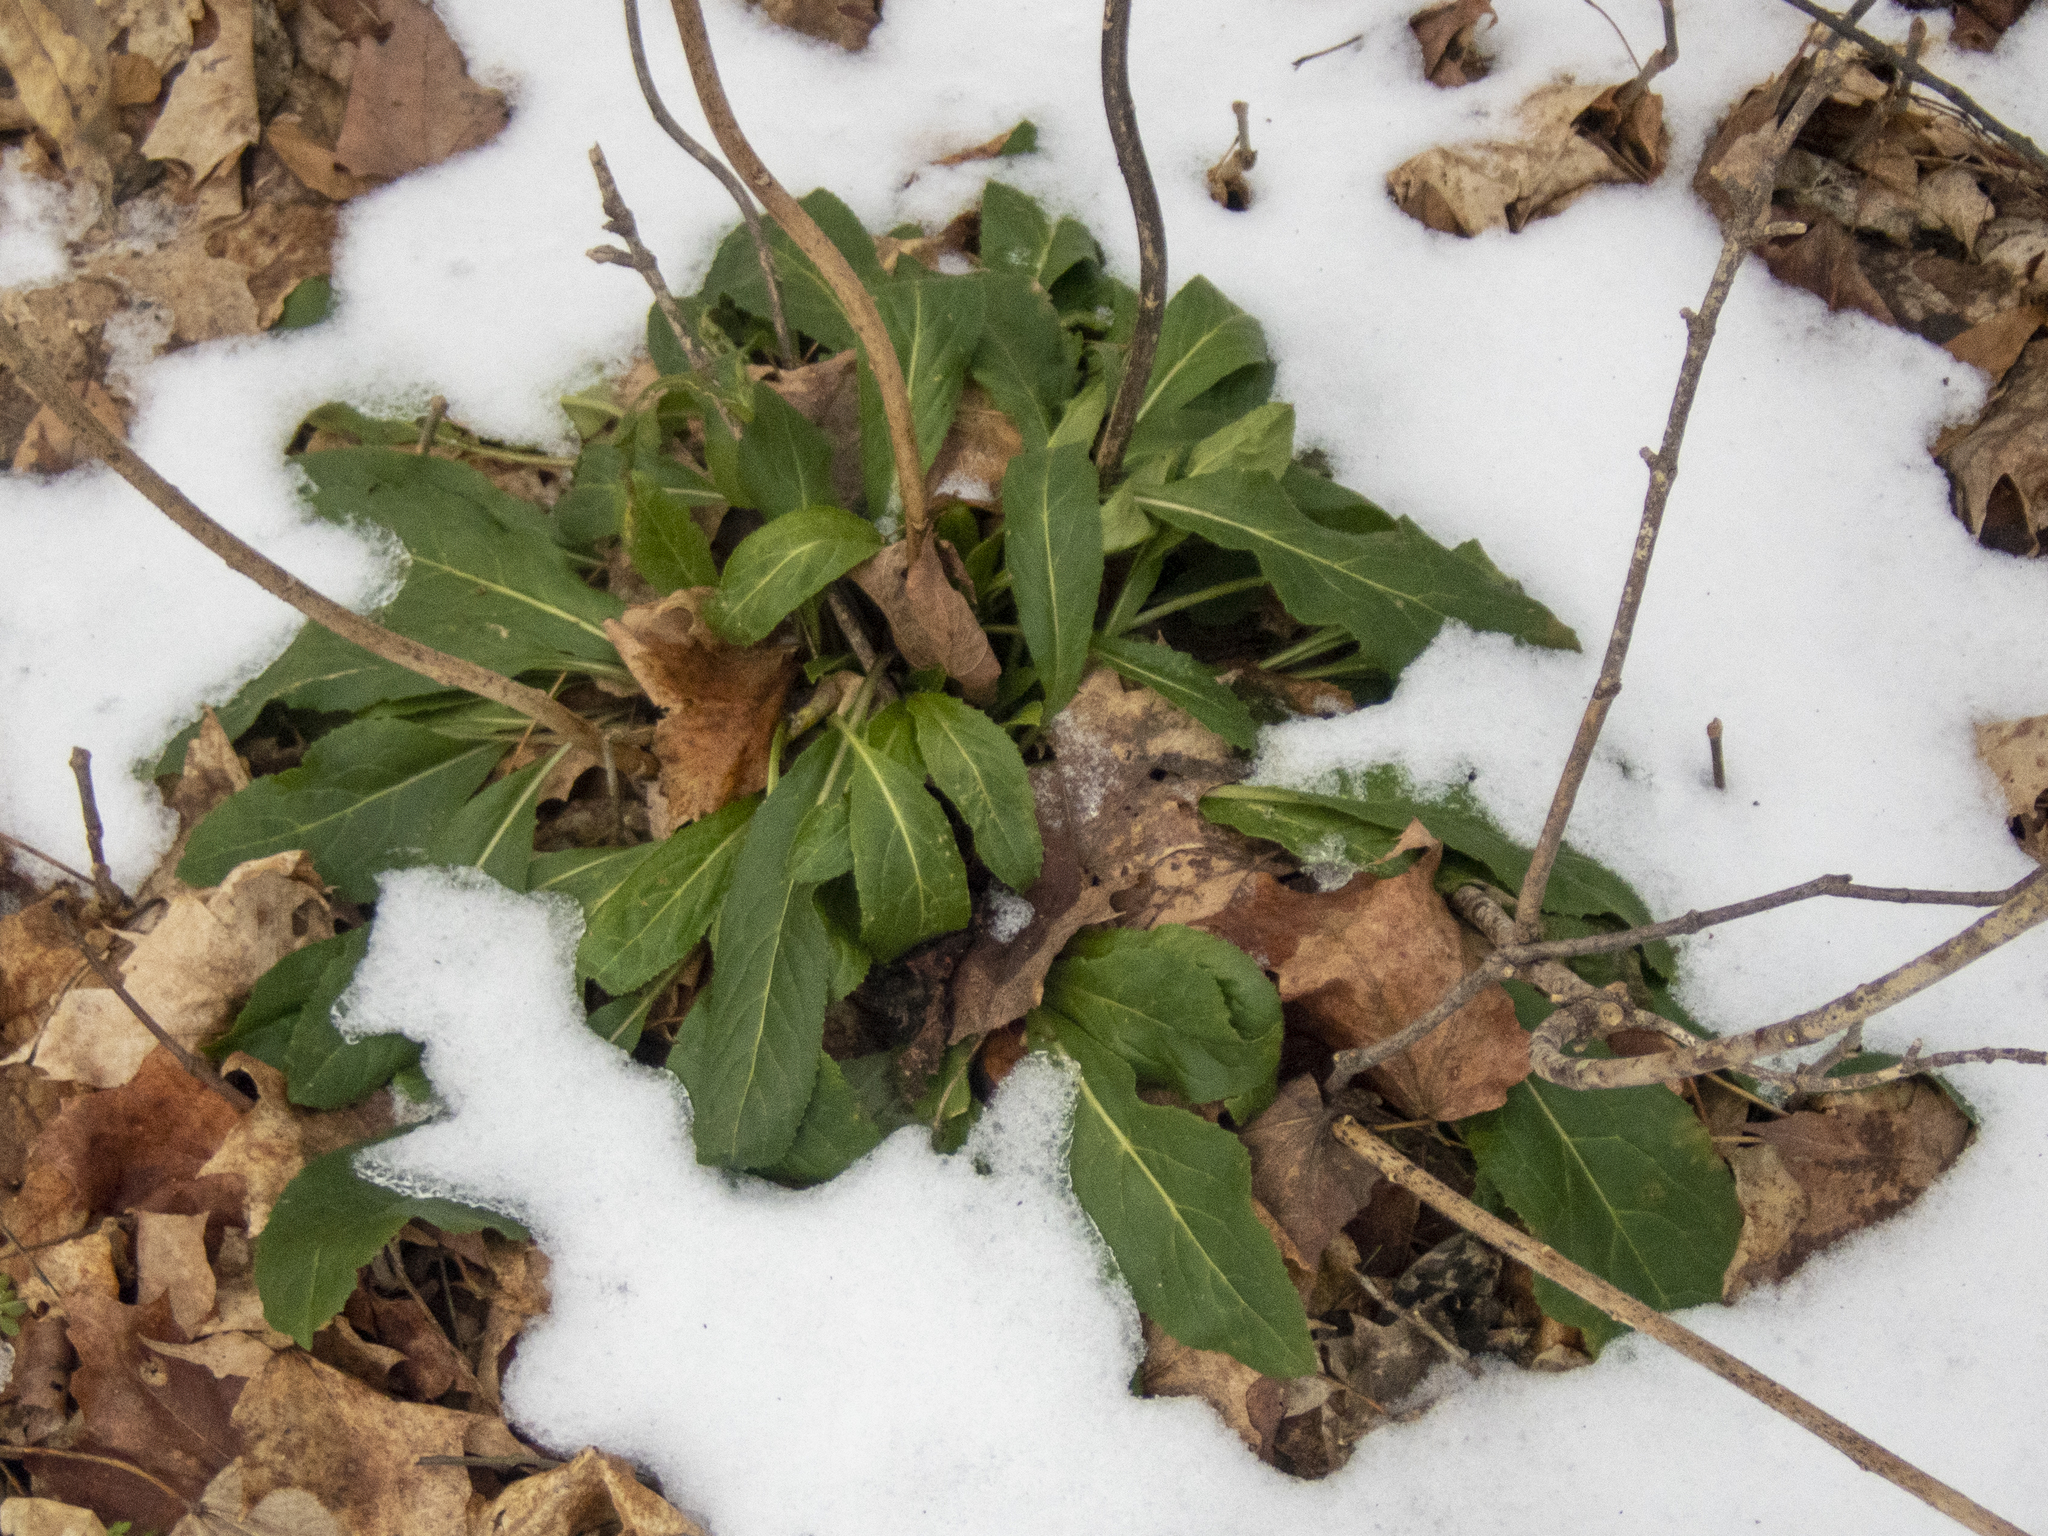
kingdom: Plantae
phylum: Tracheophyta
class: Magnoliopsida
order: Brassicales
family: Brassicaceae
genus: Hesperis
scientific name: Hesperis matronalis
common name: Dame's-violet
